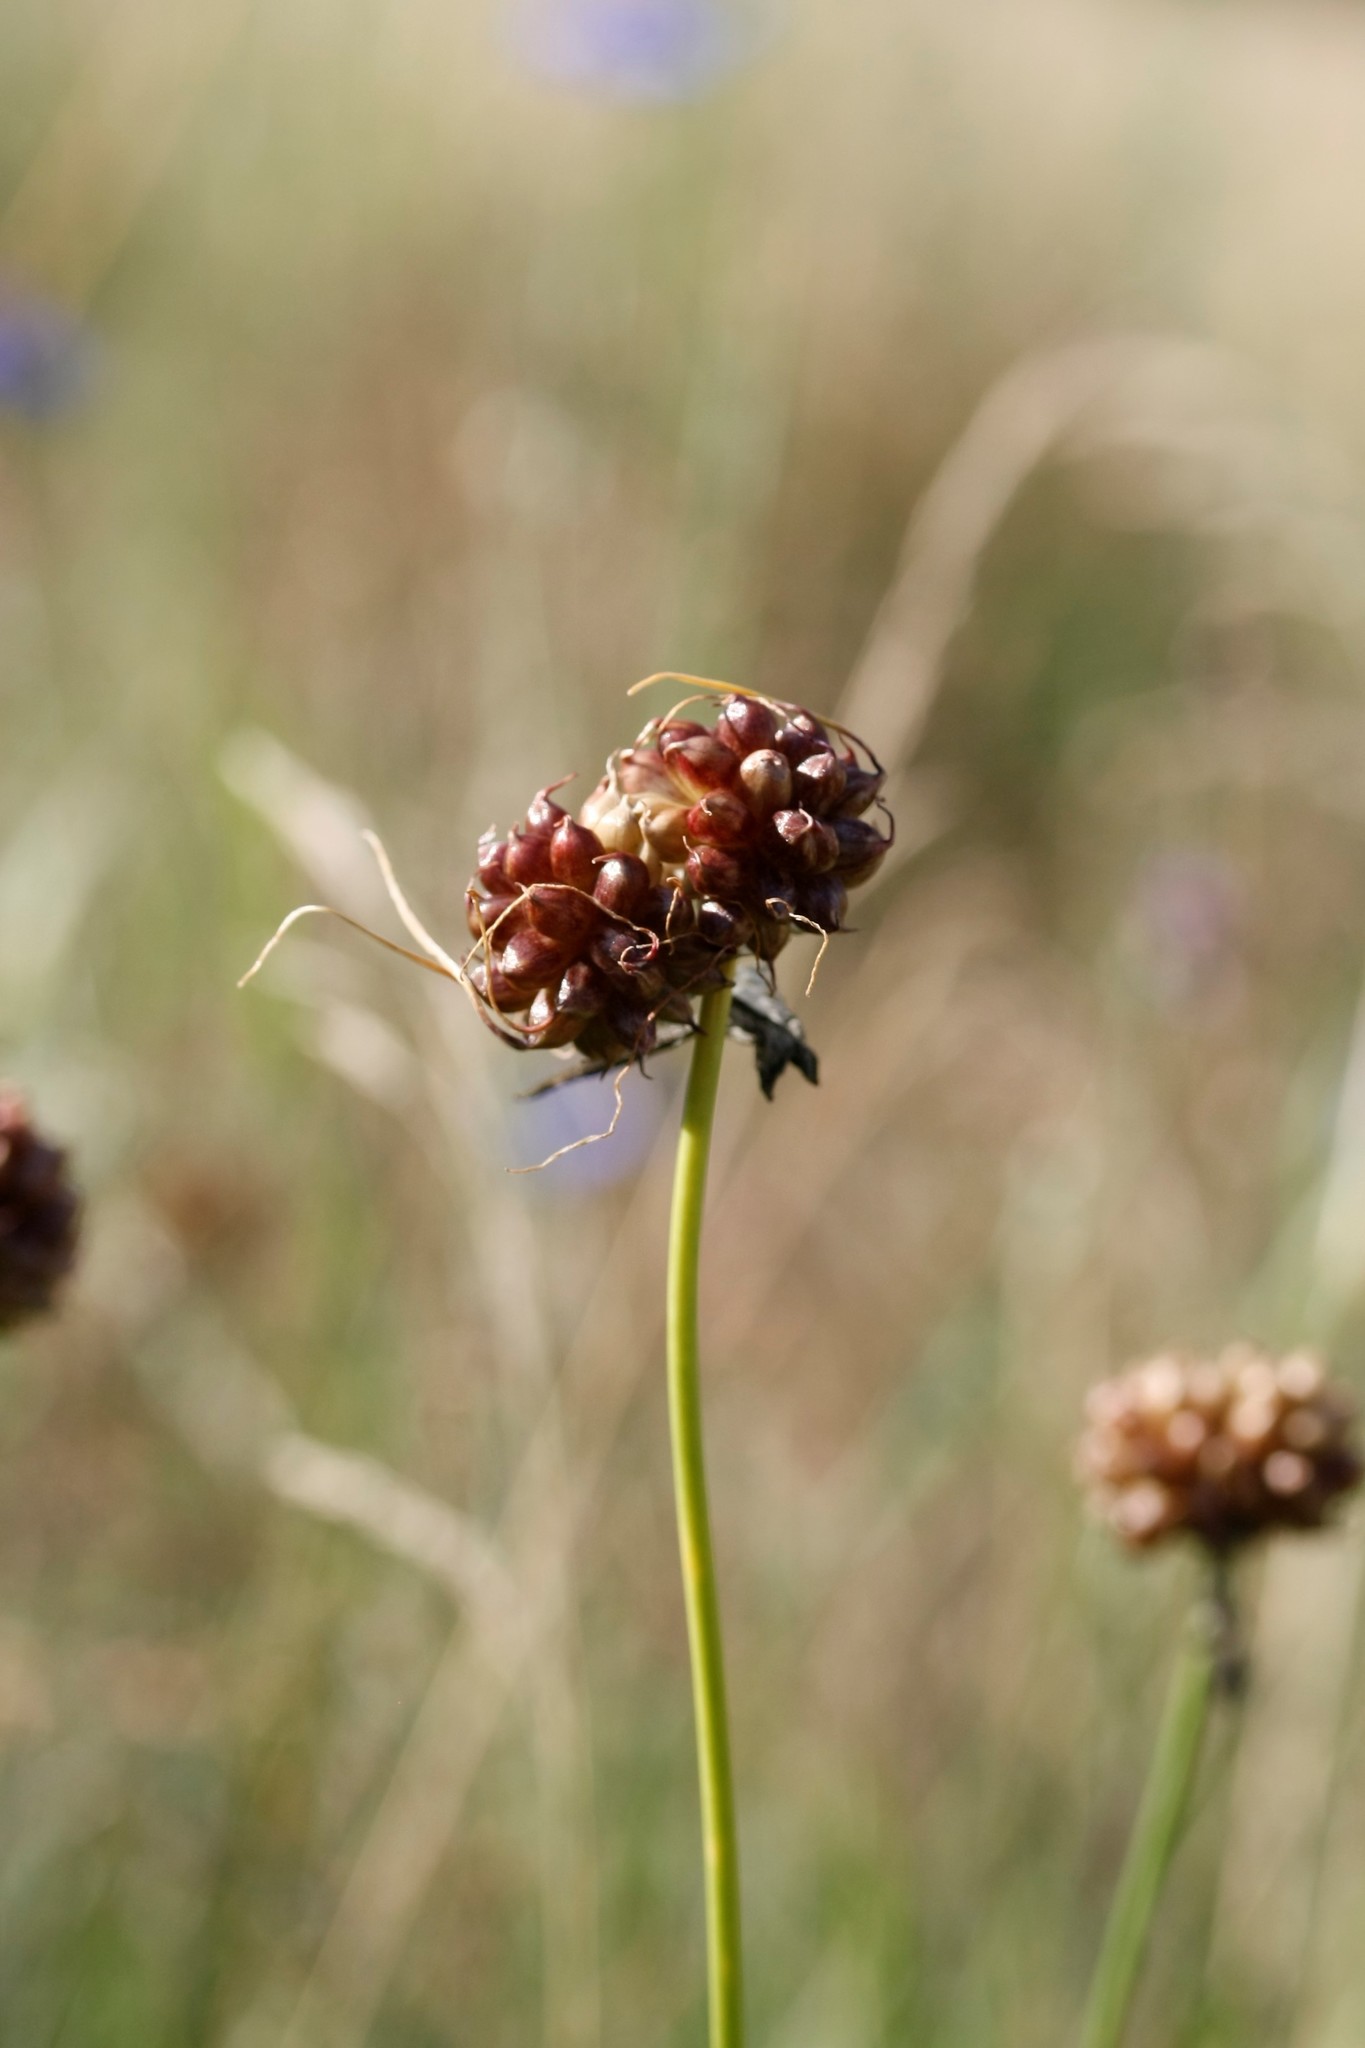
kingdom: Plantae
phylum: Tracheophyta
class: Liliopsida
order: Asparagales
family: Amaryllidaceae
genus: Allium
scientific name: Allium vineale
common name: Crow garlic
